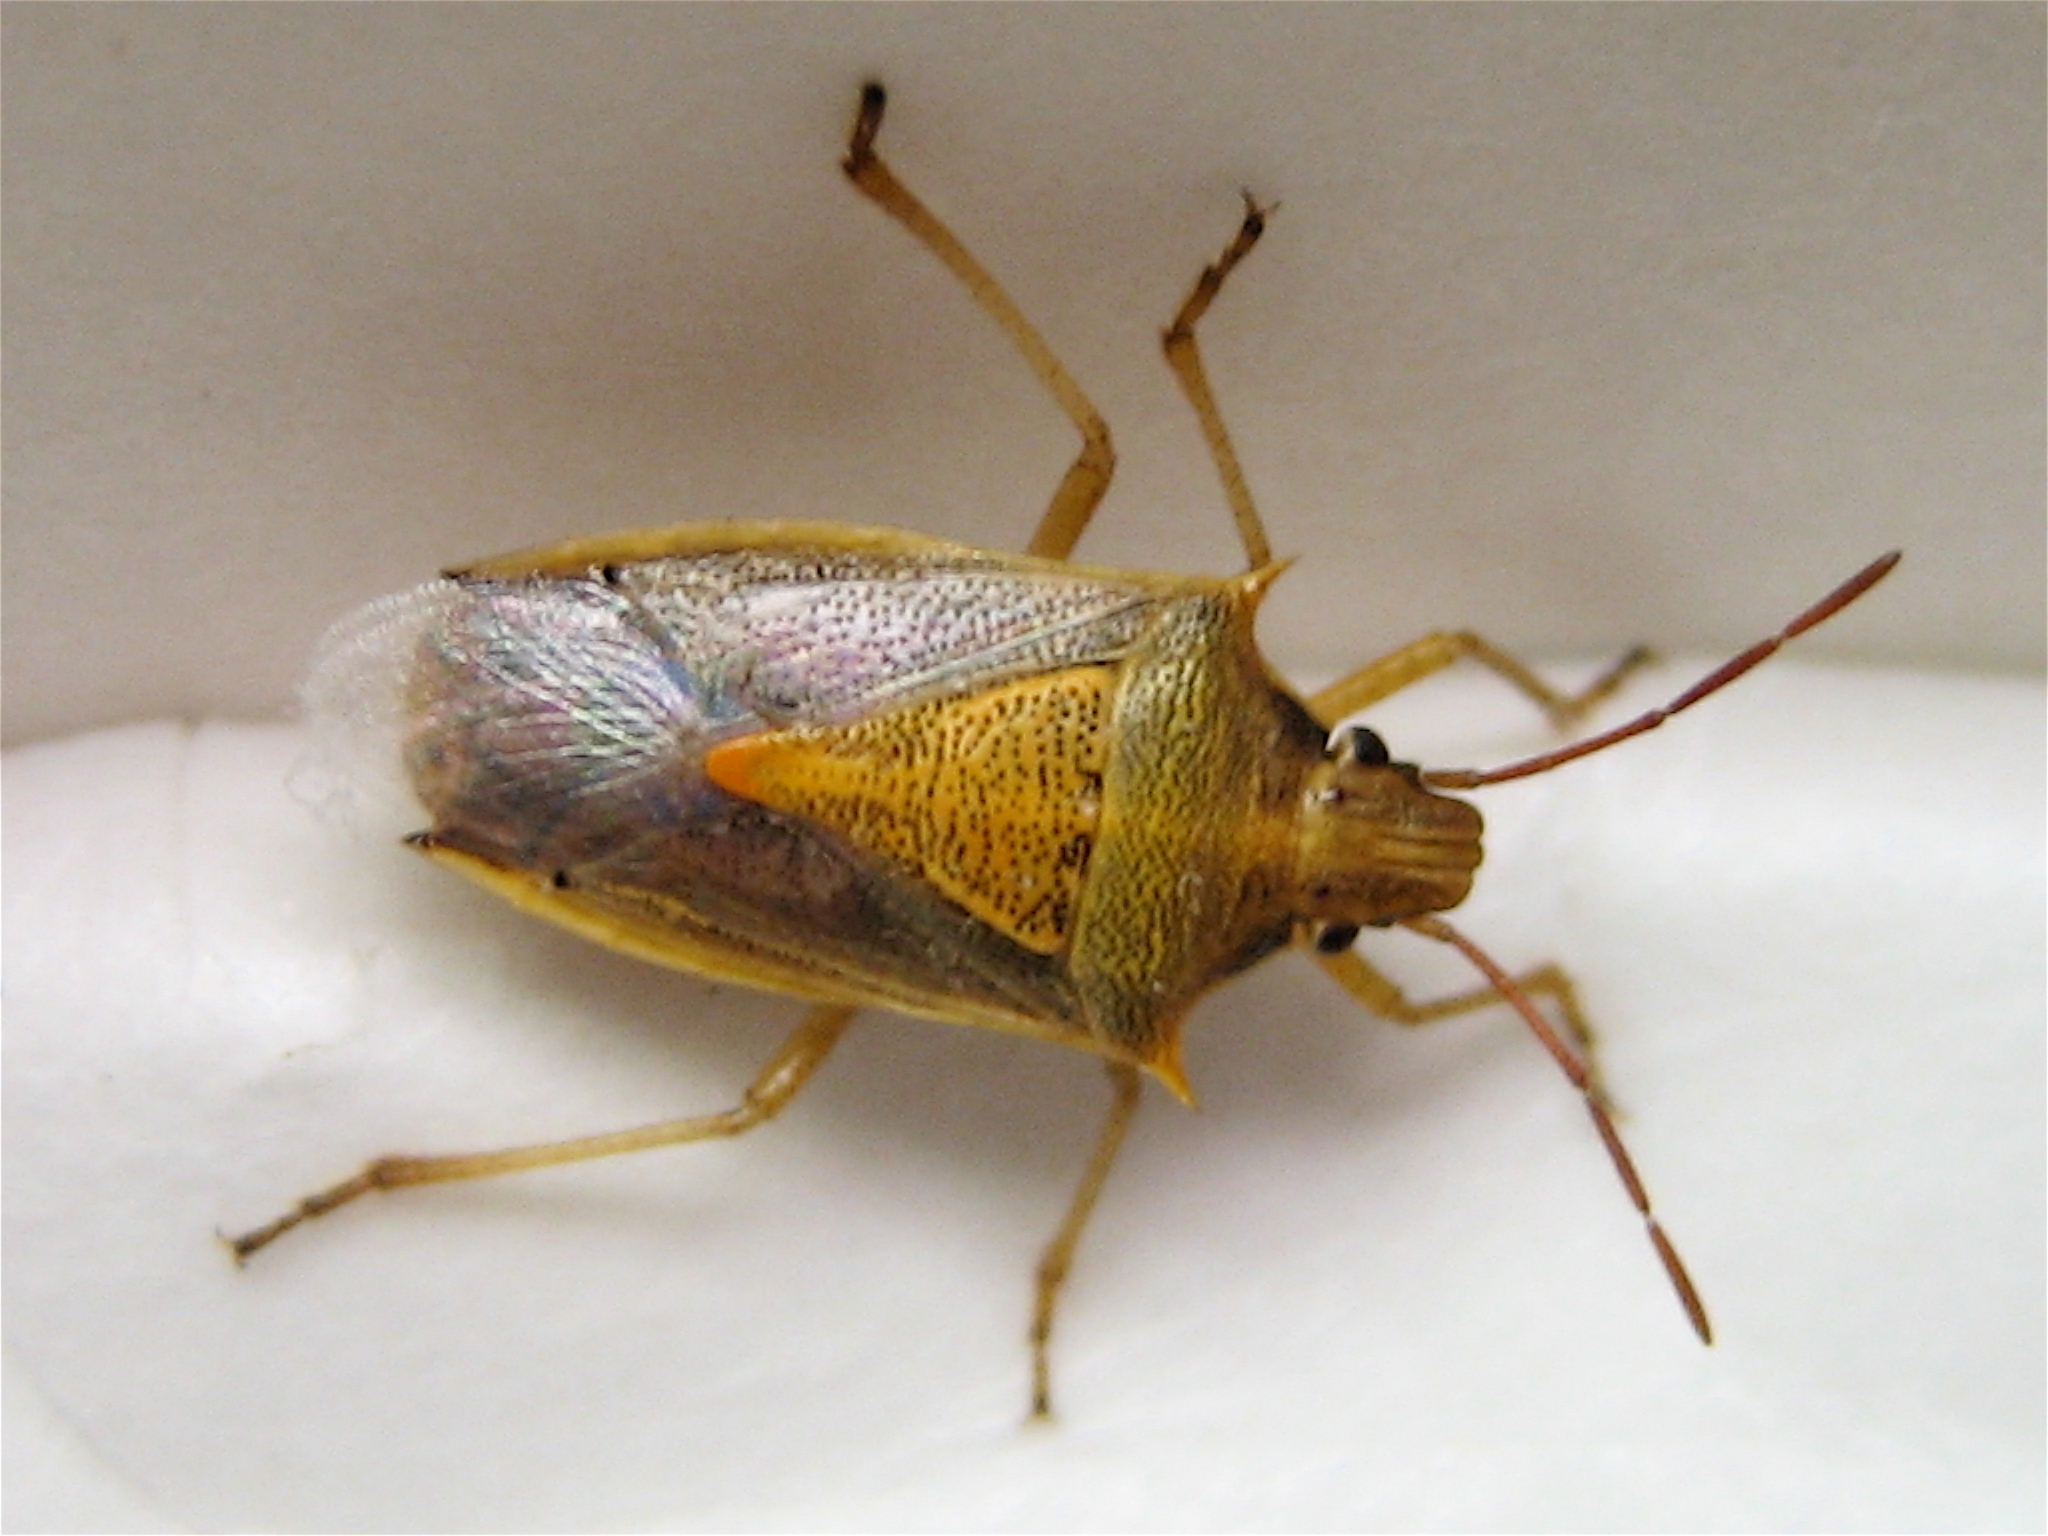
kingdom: Animalia
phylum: Arthropoda
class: Insecta
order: Hemiptera
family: Pentatomidae
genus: Oebalus
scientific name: Oebalus pugnax
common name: Rice stink bug
